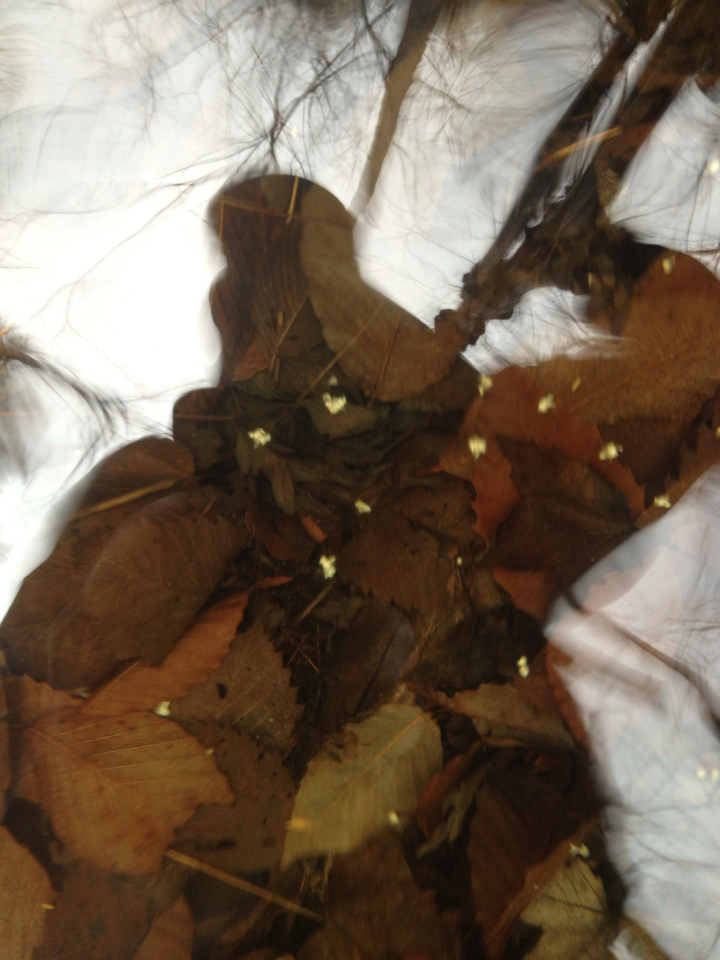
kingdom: Animalia
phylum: Chordata
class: Amphibia
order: Caudata
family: Ambystomatidae
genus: Ambystoma
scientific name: Ambystoma maculatum
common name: Spotted salamander
